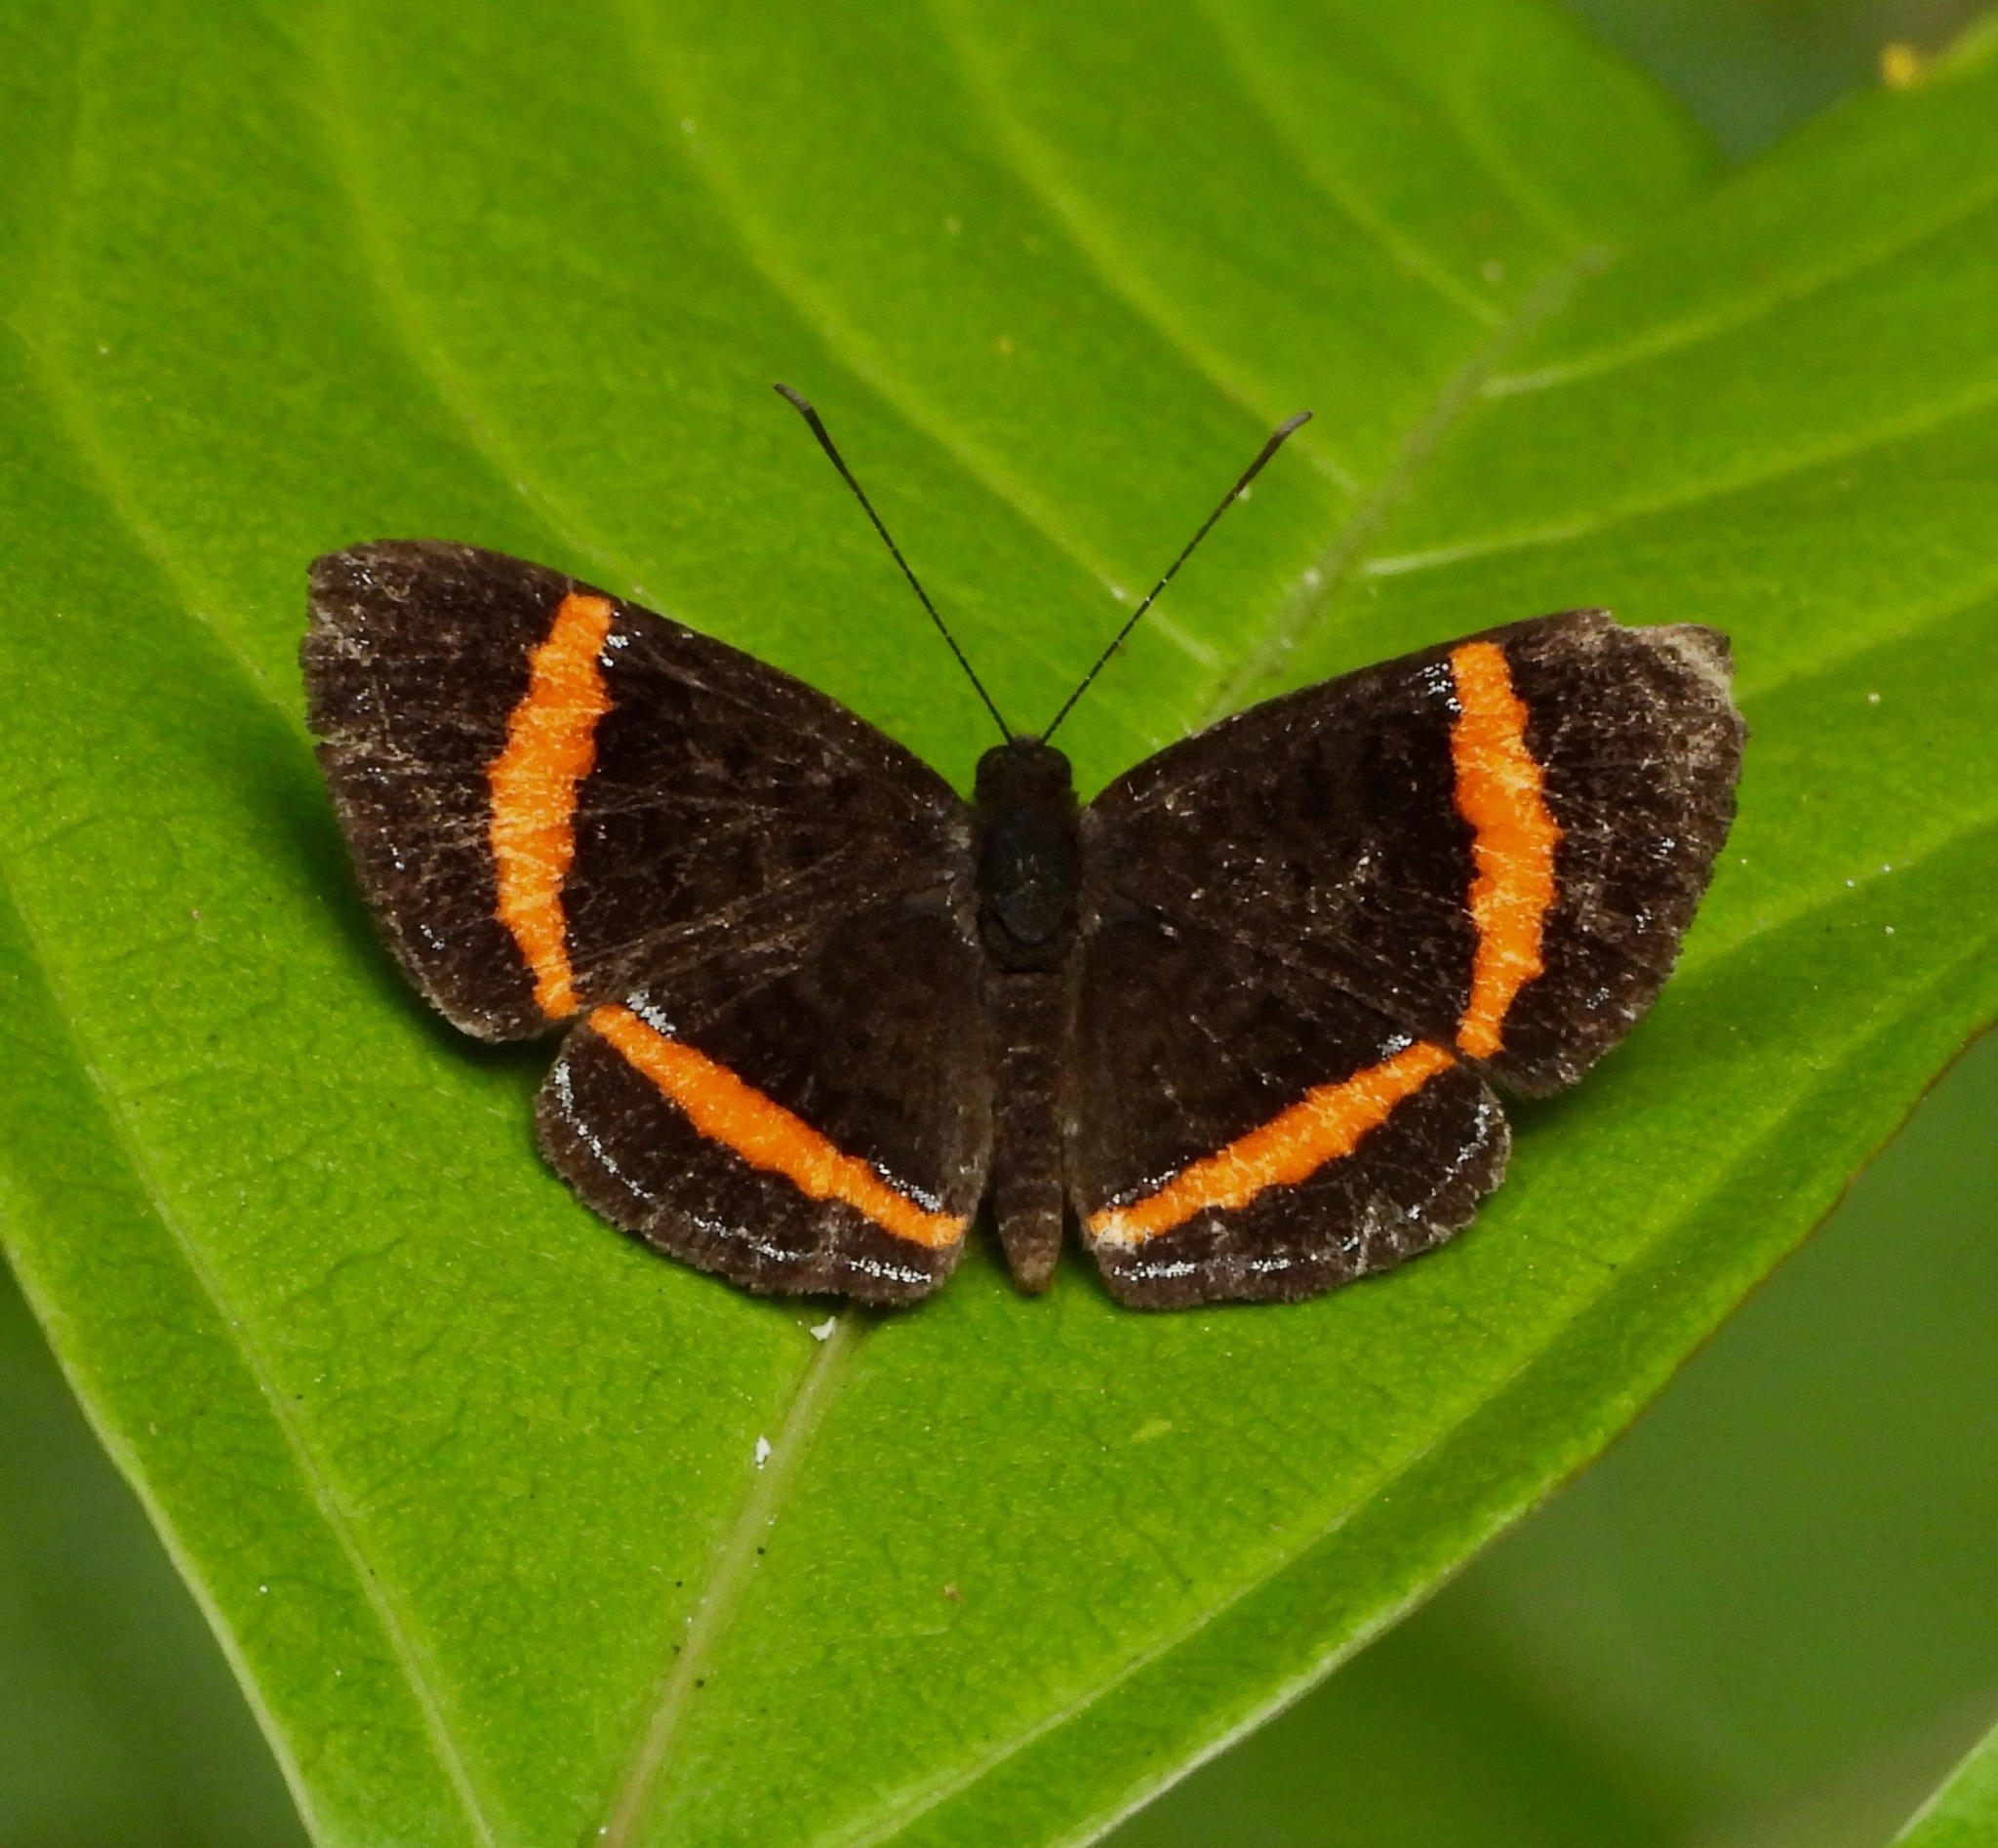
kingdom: Animalia
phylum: Arthropoda
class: Insecta
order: Lepidoptera
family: Riodinidae
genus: Crocozona
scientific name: Crocozona coecias
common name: Orange-banded gem
